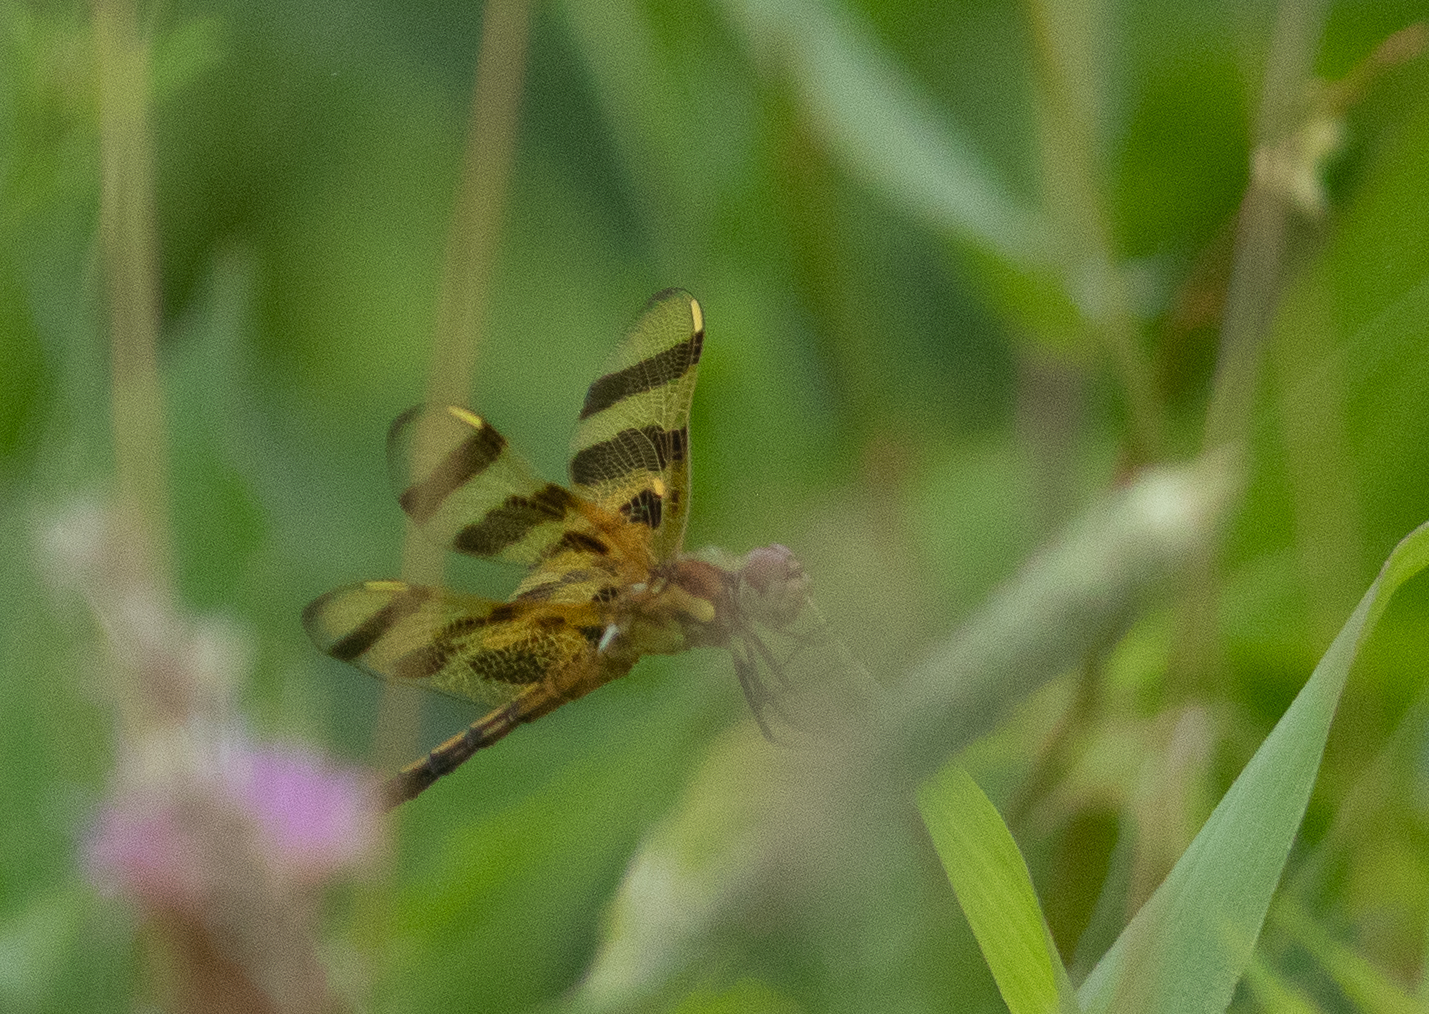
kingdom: Animalia
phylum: Arthropoda
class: Insecta
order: Odonata
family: Libellulidae
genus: Celithemis
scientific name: Celithemis eponina
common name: Halloween pennant
